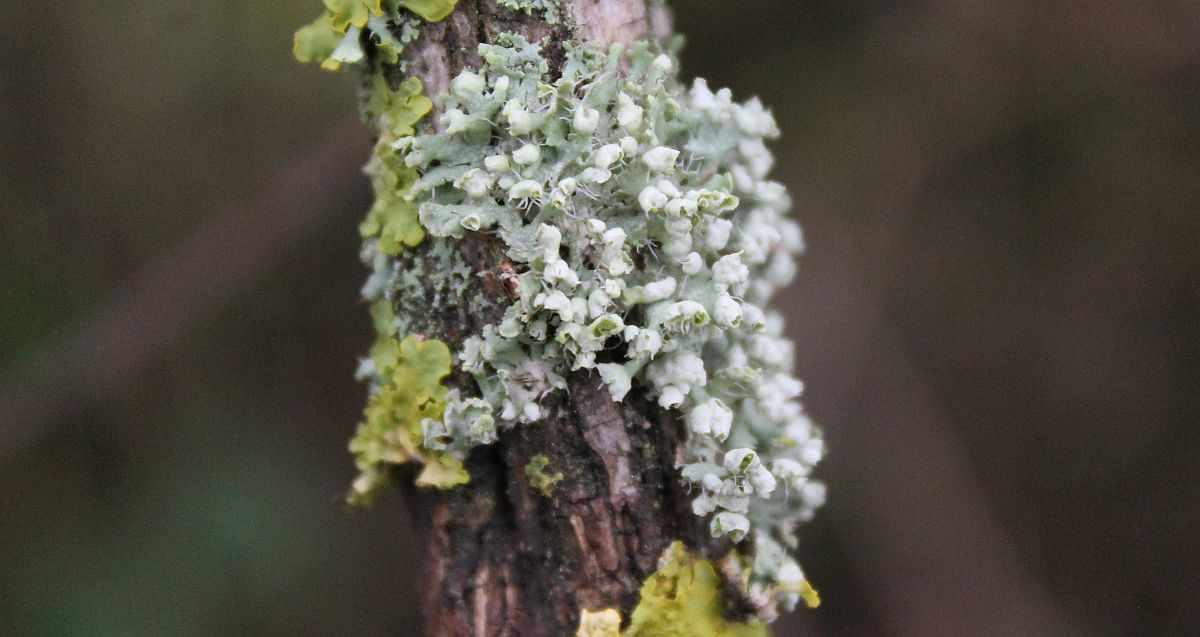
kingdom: Fungi
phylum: Ascomycota
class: Lecanoromycetes
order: Caliciales
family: Physciaceae
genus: Physcia
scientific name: Physcia adscendens
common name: Hooded rosette lichen
